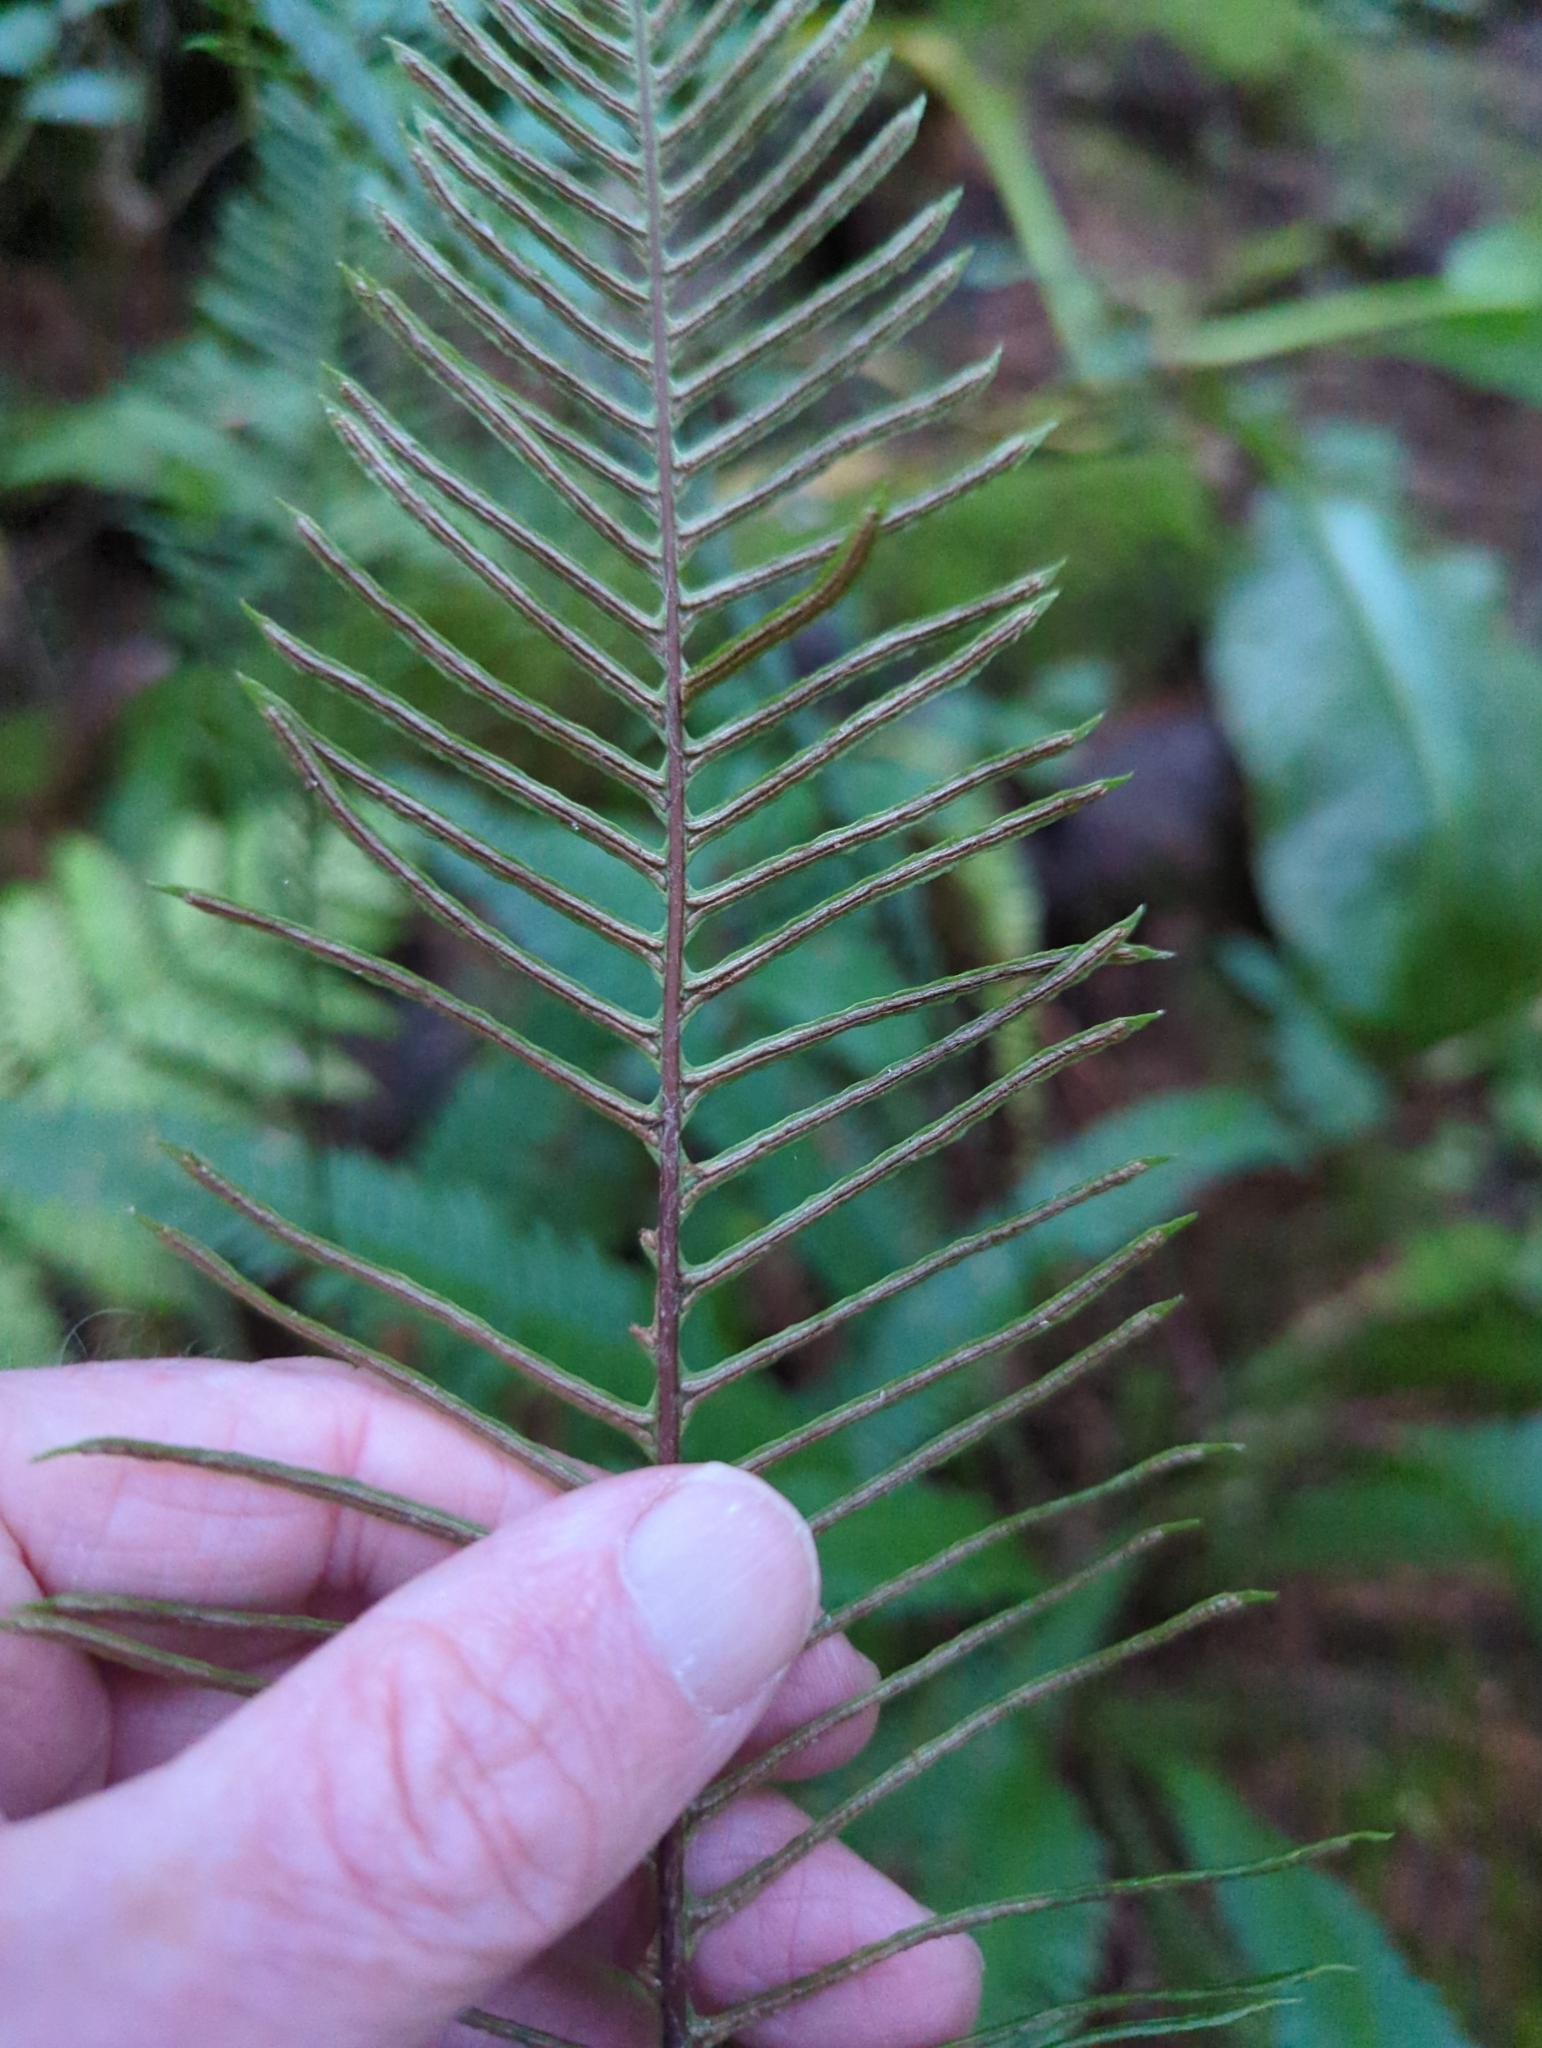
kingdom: Plantae
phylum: Tracheophyta
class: Polypodiopsida
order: Polypodiales
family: Blechnaceae
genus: Struthiopteris
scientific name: Struthiopteris spicant
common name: Deer fern
